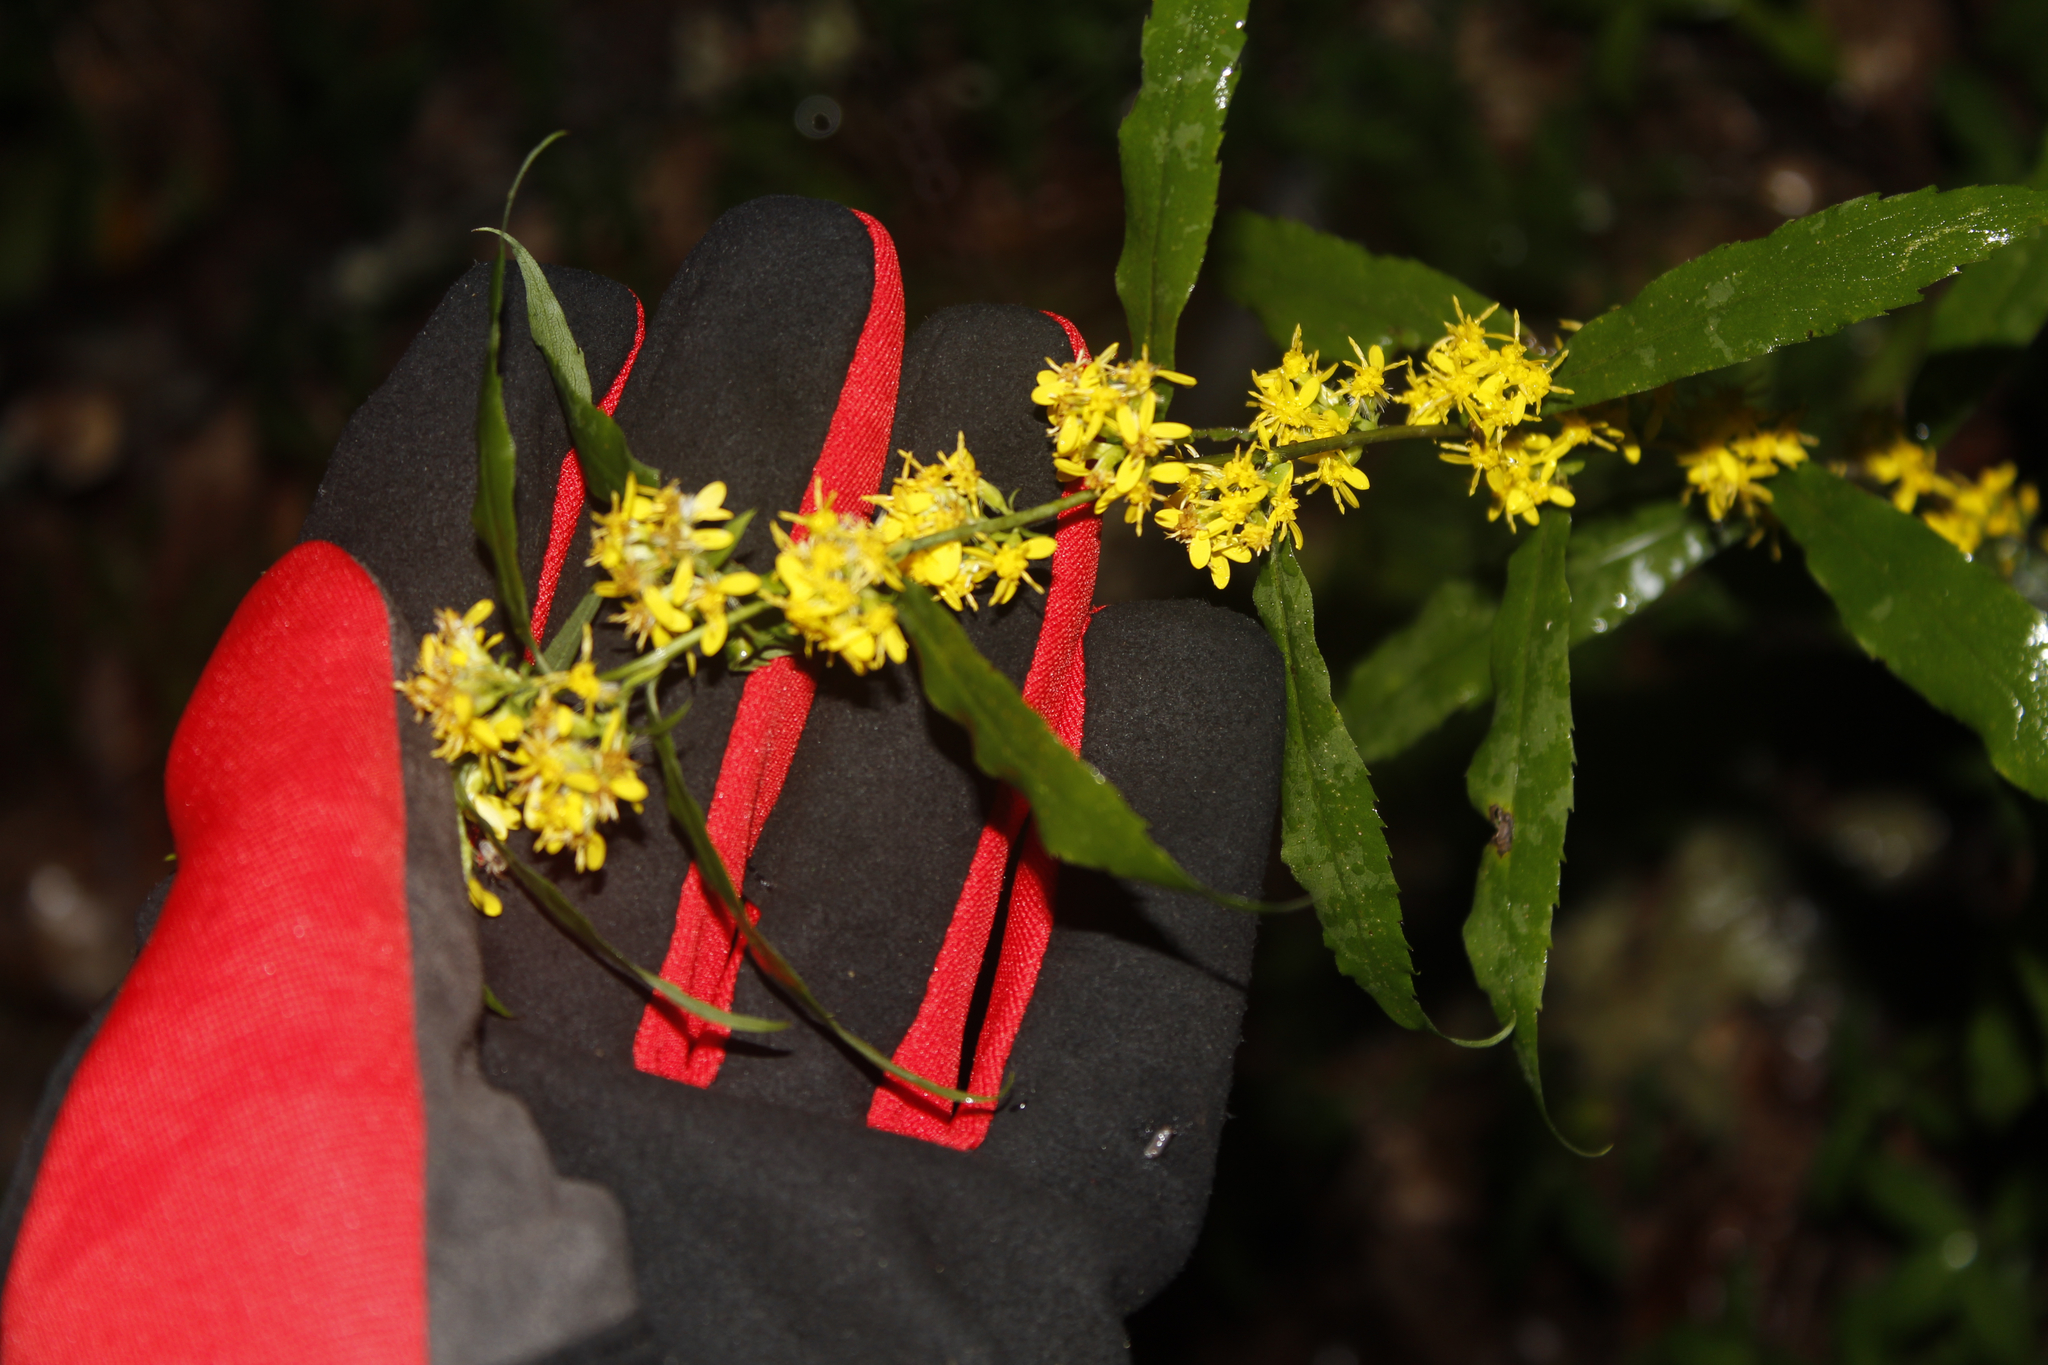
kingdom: Plantae
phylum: Tracheophyta
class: Magnoliopsida
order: Asterales
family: Asteraceae
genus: Solidago
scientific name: Solidago caesia
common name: Woodland goldenrod
